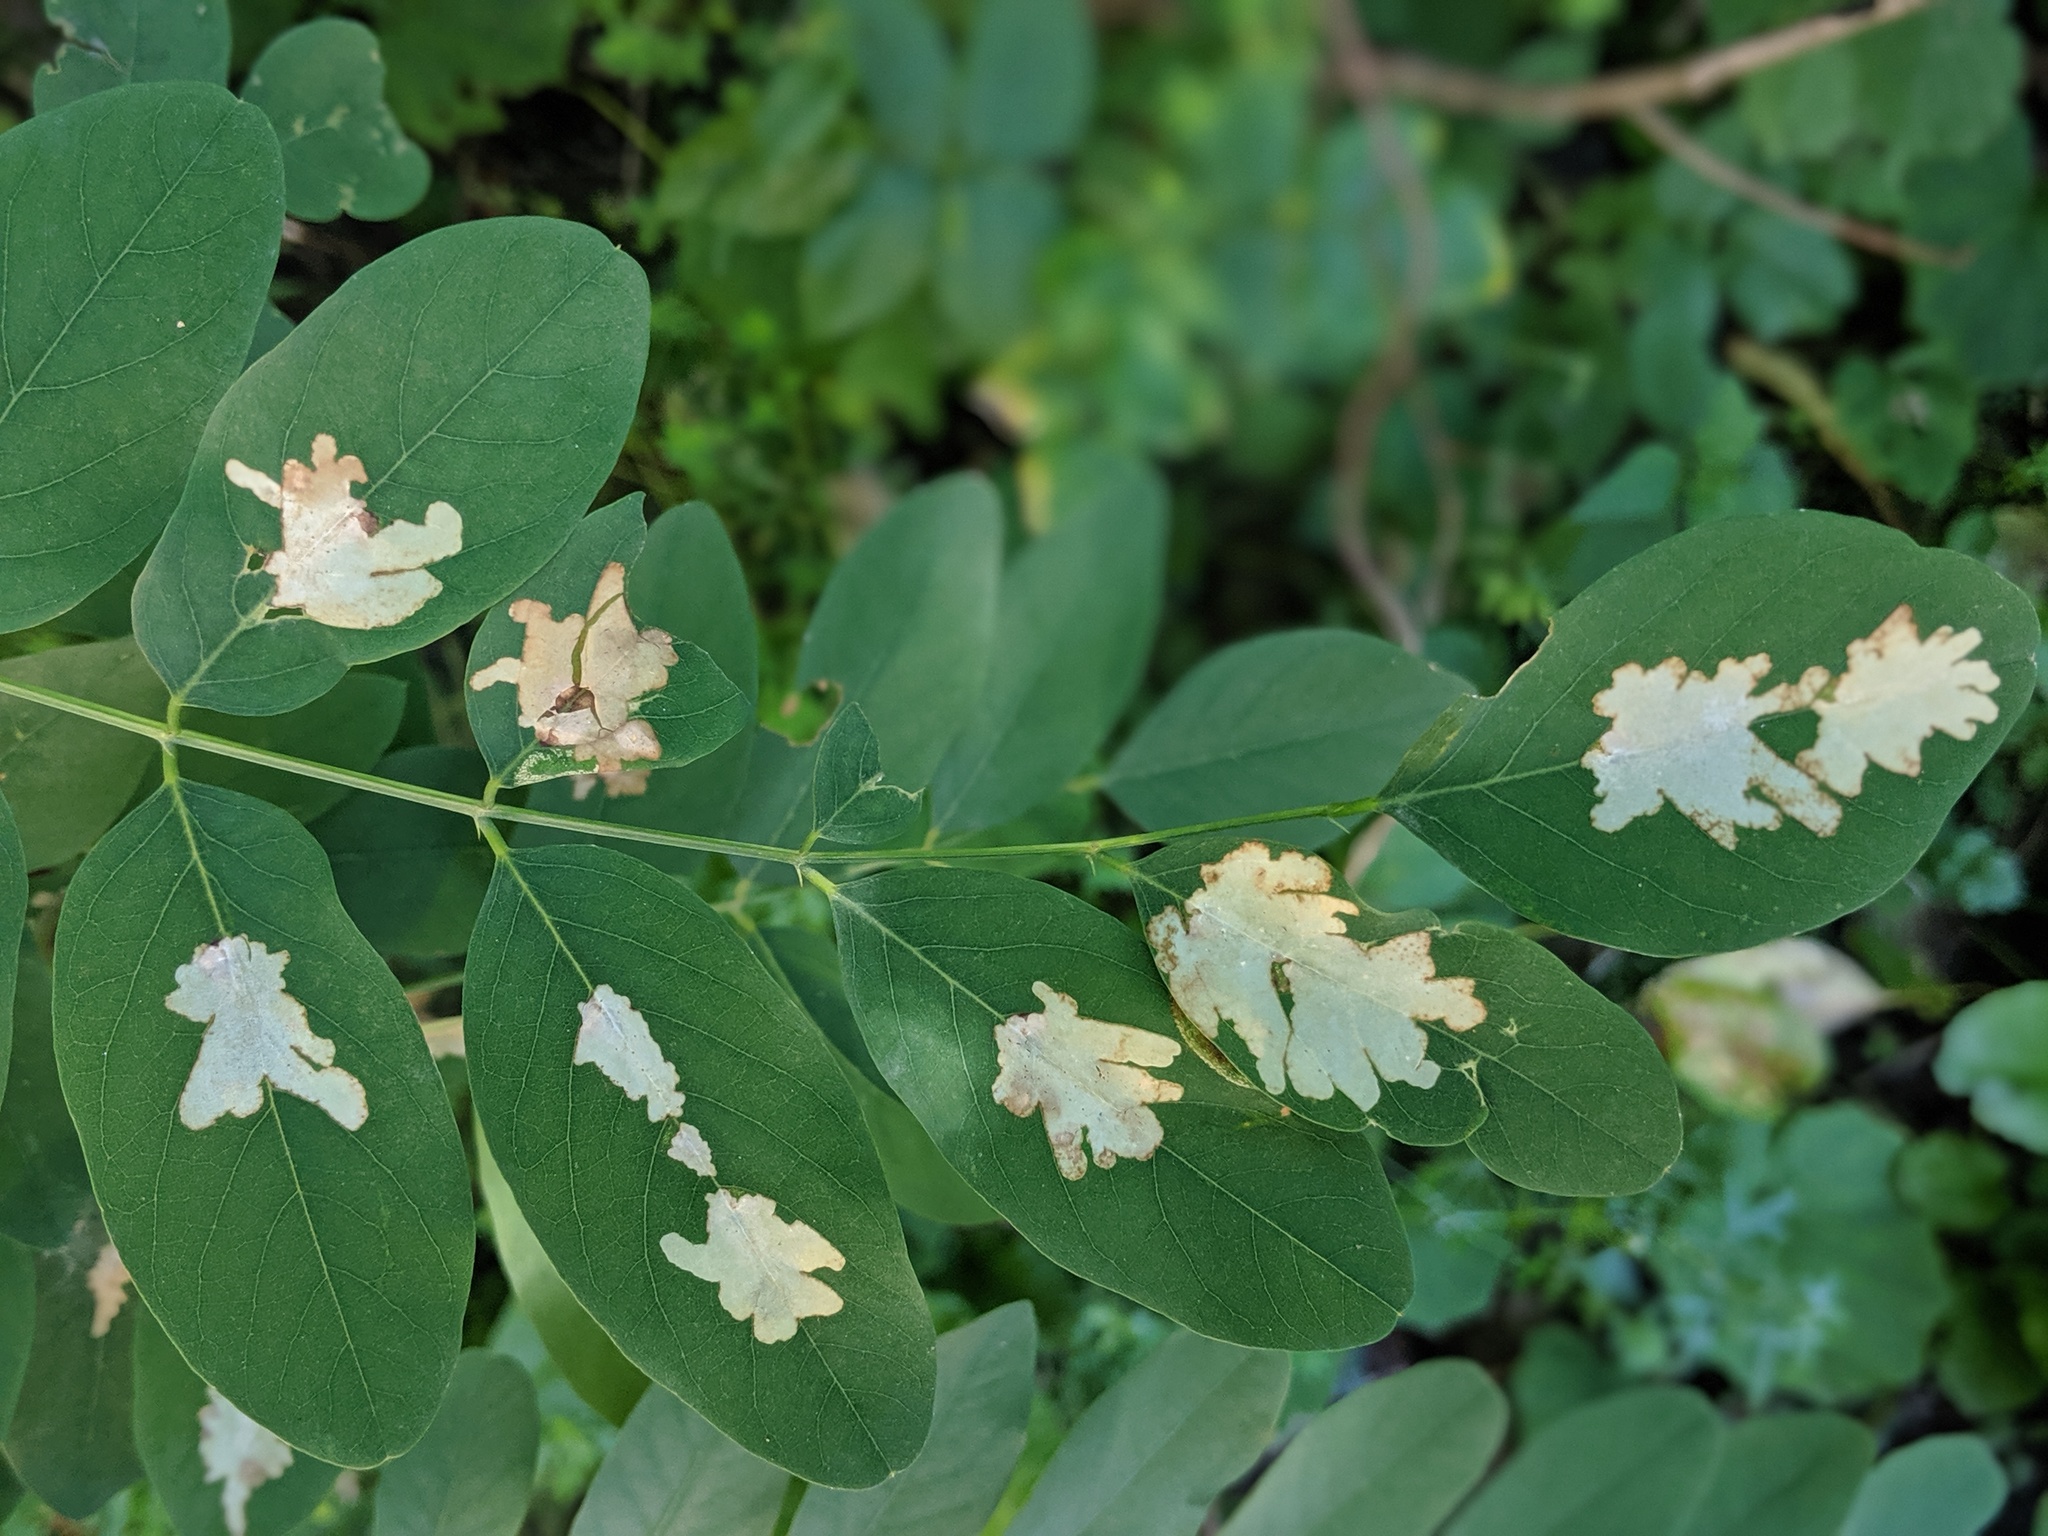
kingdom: Animalia
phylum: Arthropoda
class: Insecta
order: Lepidoptera
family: Gracillariidae
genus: Parectopa
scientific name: Parectopa robiniella
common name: Locust digitate leafminer
